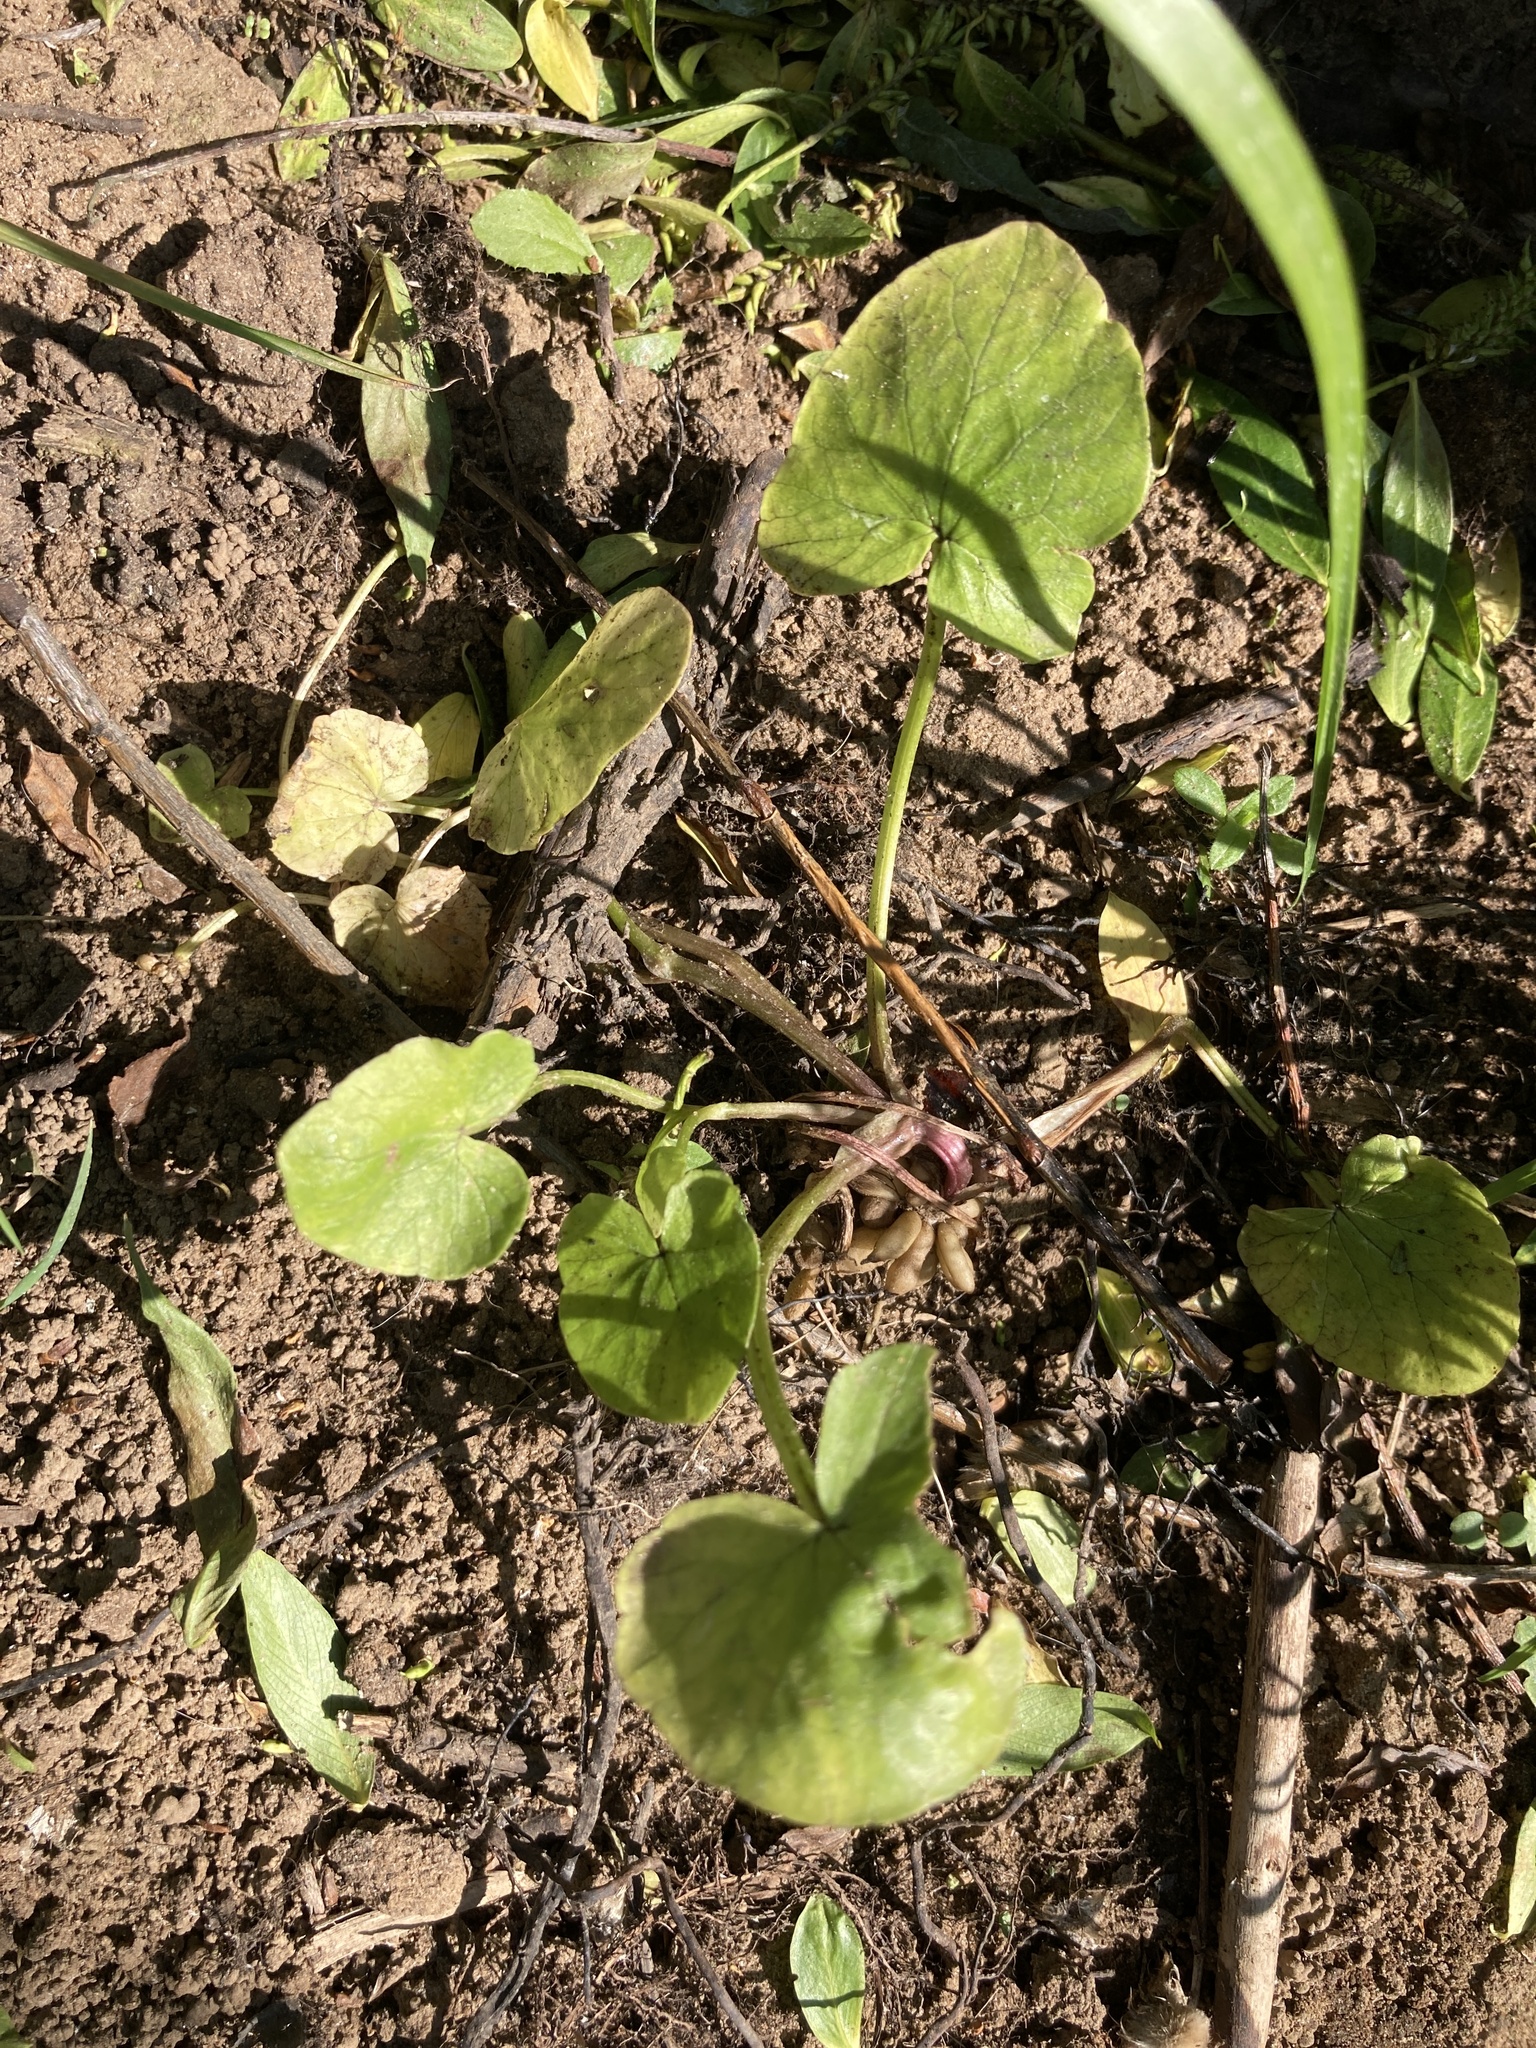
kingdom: Plantae
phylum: Tracheophyta
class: Magnoliopsida
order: Ranunculales
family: Ranunculaceae
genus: Ficaria
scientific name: Ficaria verna
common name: Lesser celandine
